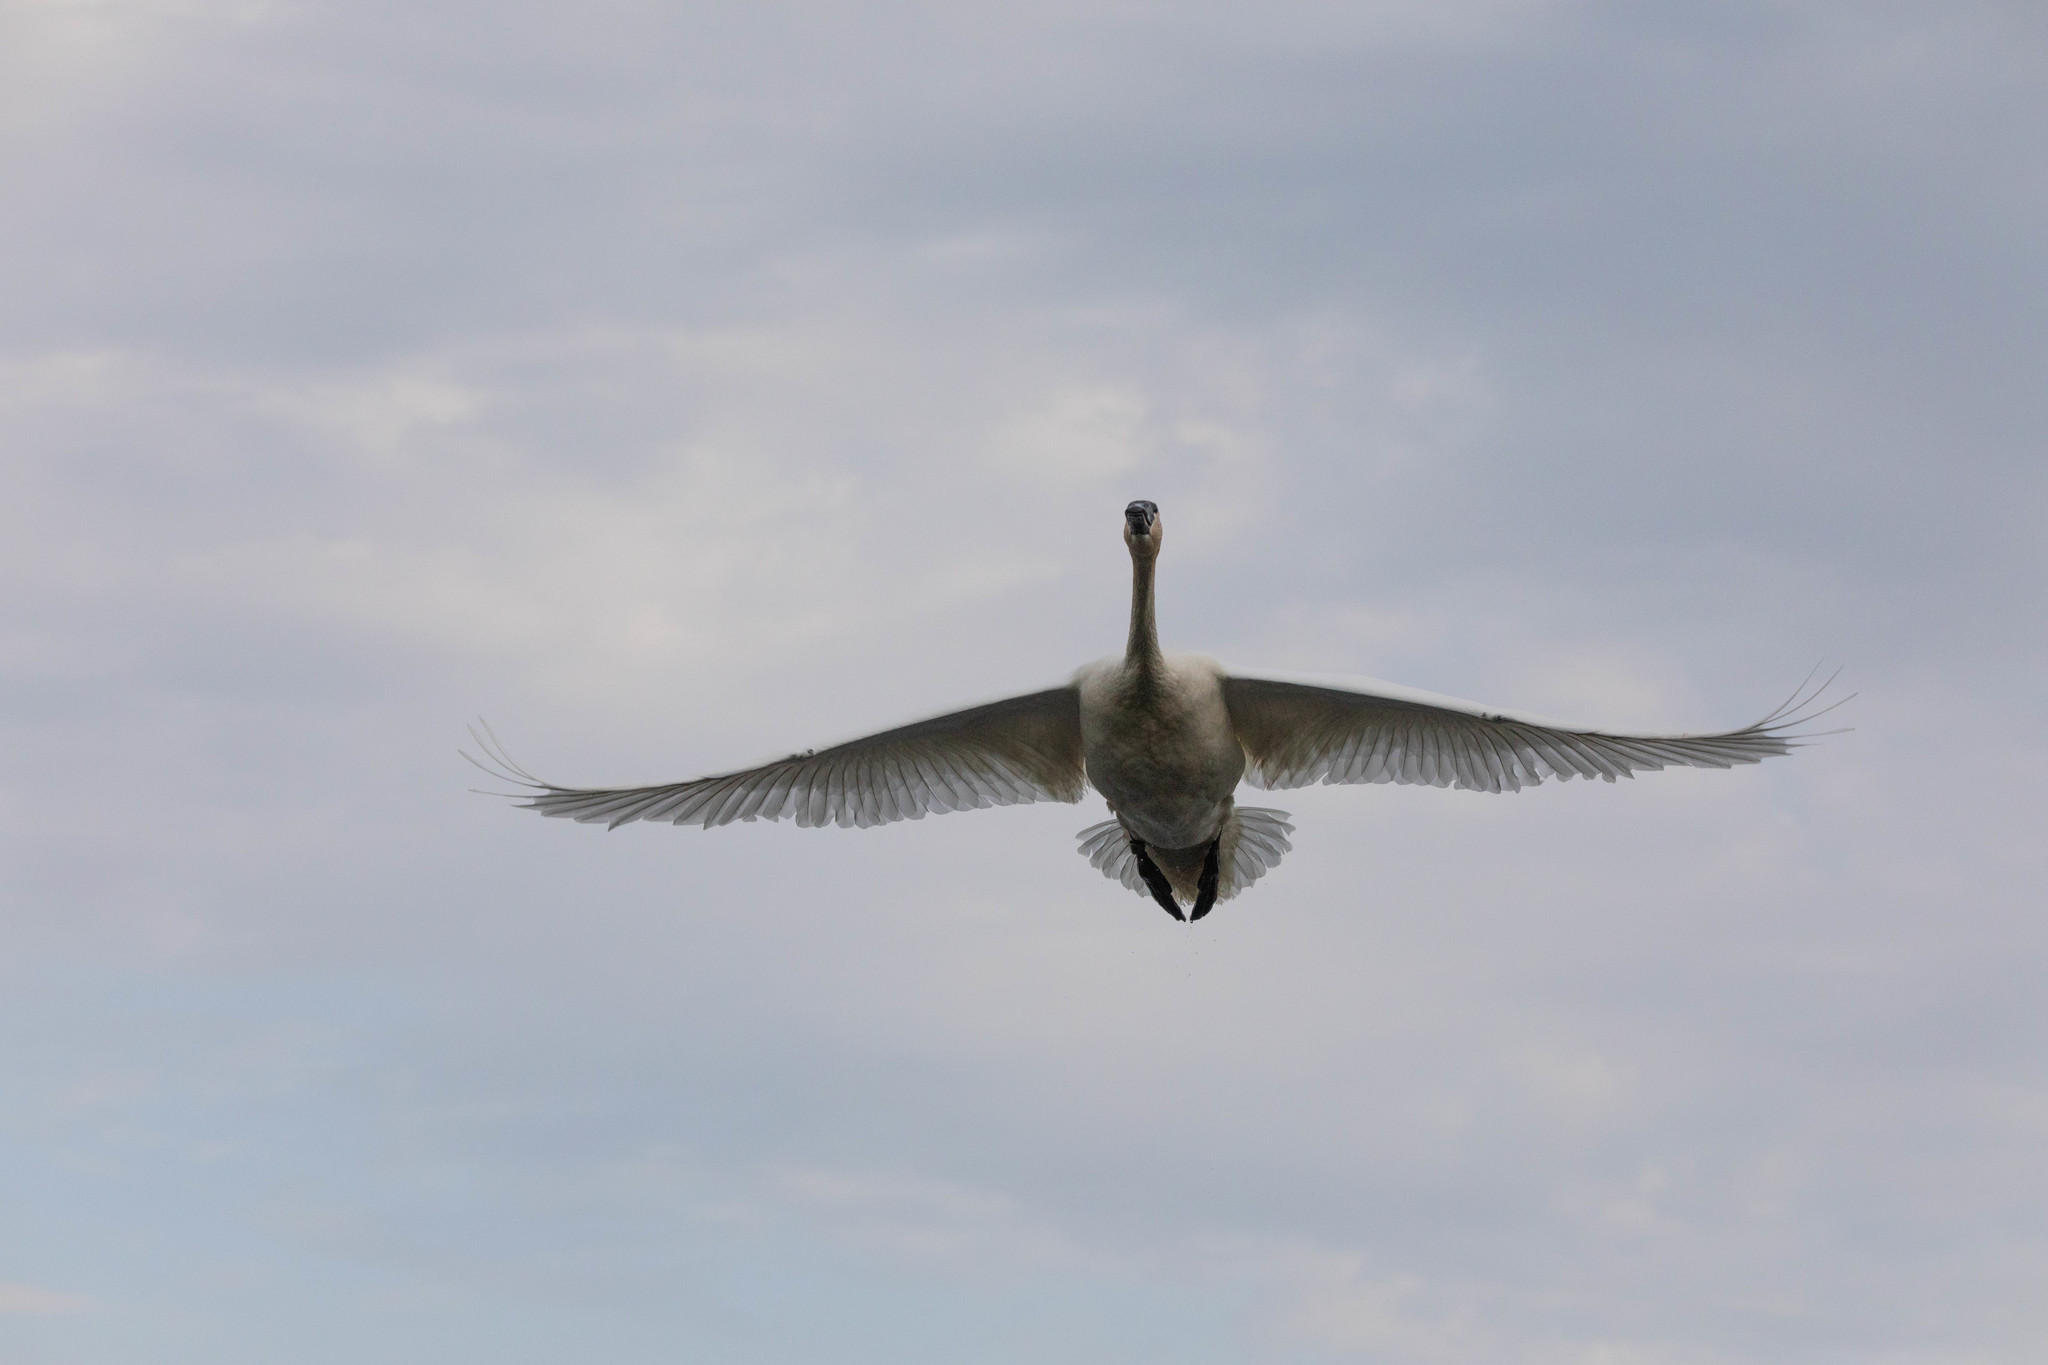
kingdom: Animalia
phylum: Chordata
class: Aves
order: Anseriformes
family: Anatidae
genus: Cygnus
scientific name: Cygnus buccinator
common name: Trumpeter swan
